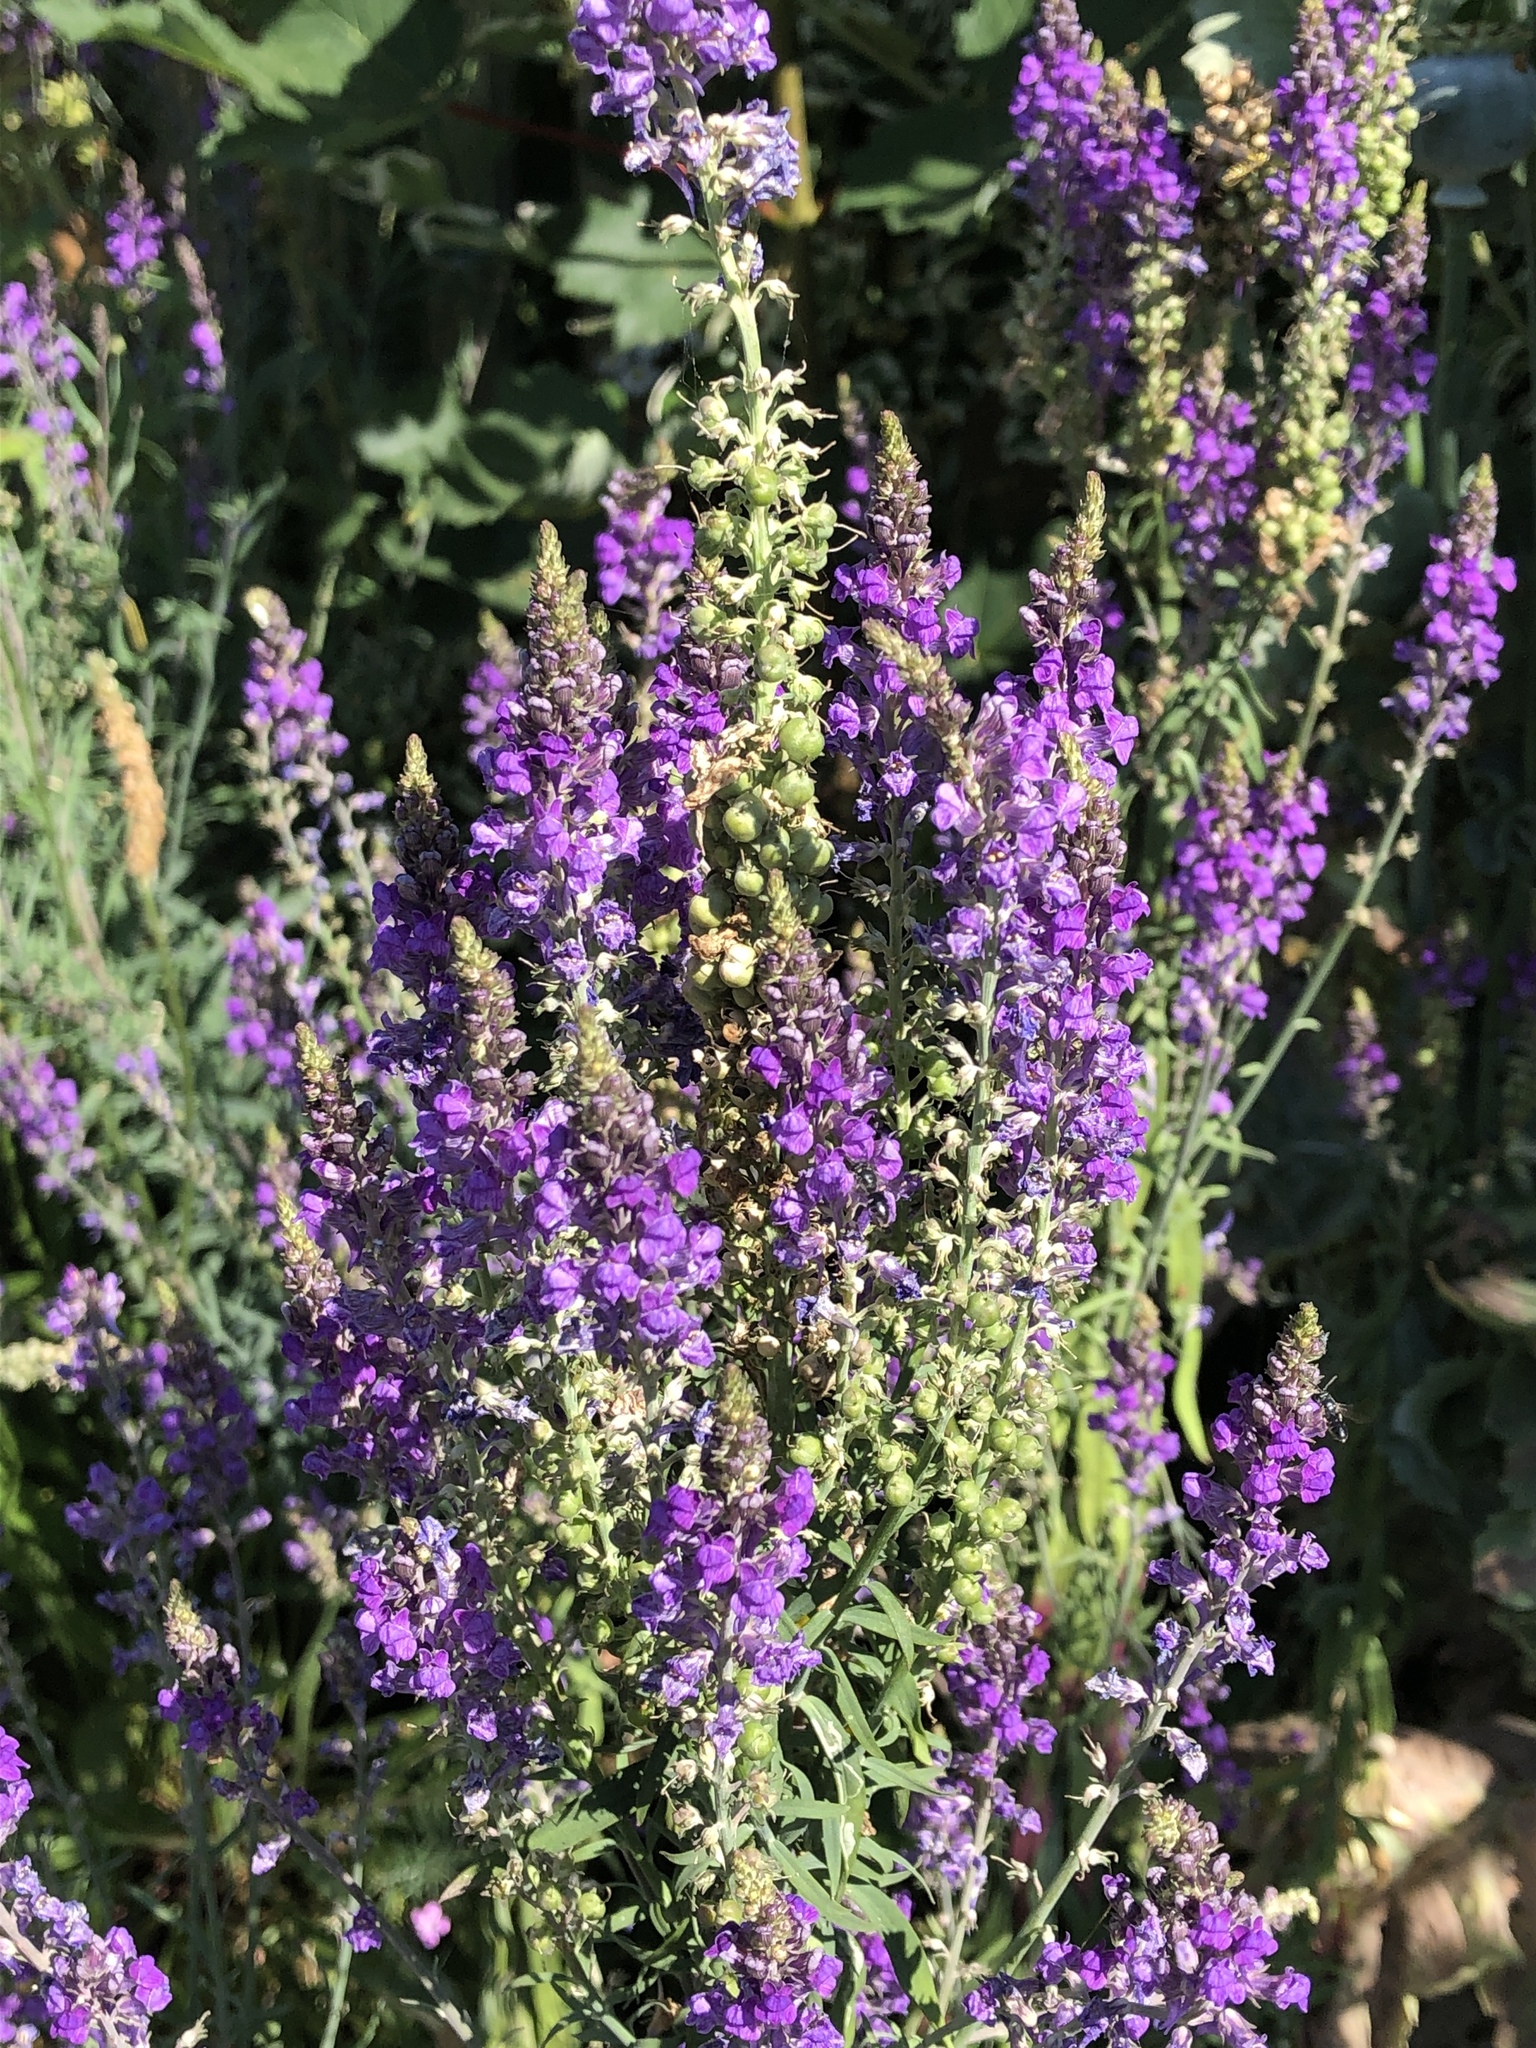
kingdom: Plantae
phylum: Tracheophyta
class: Magnoliopsida
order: Lamiales
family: Plantaginaceae
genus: Linaria
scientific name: Linaria purpurea
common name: Purple toadflax
